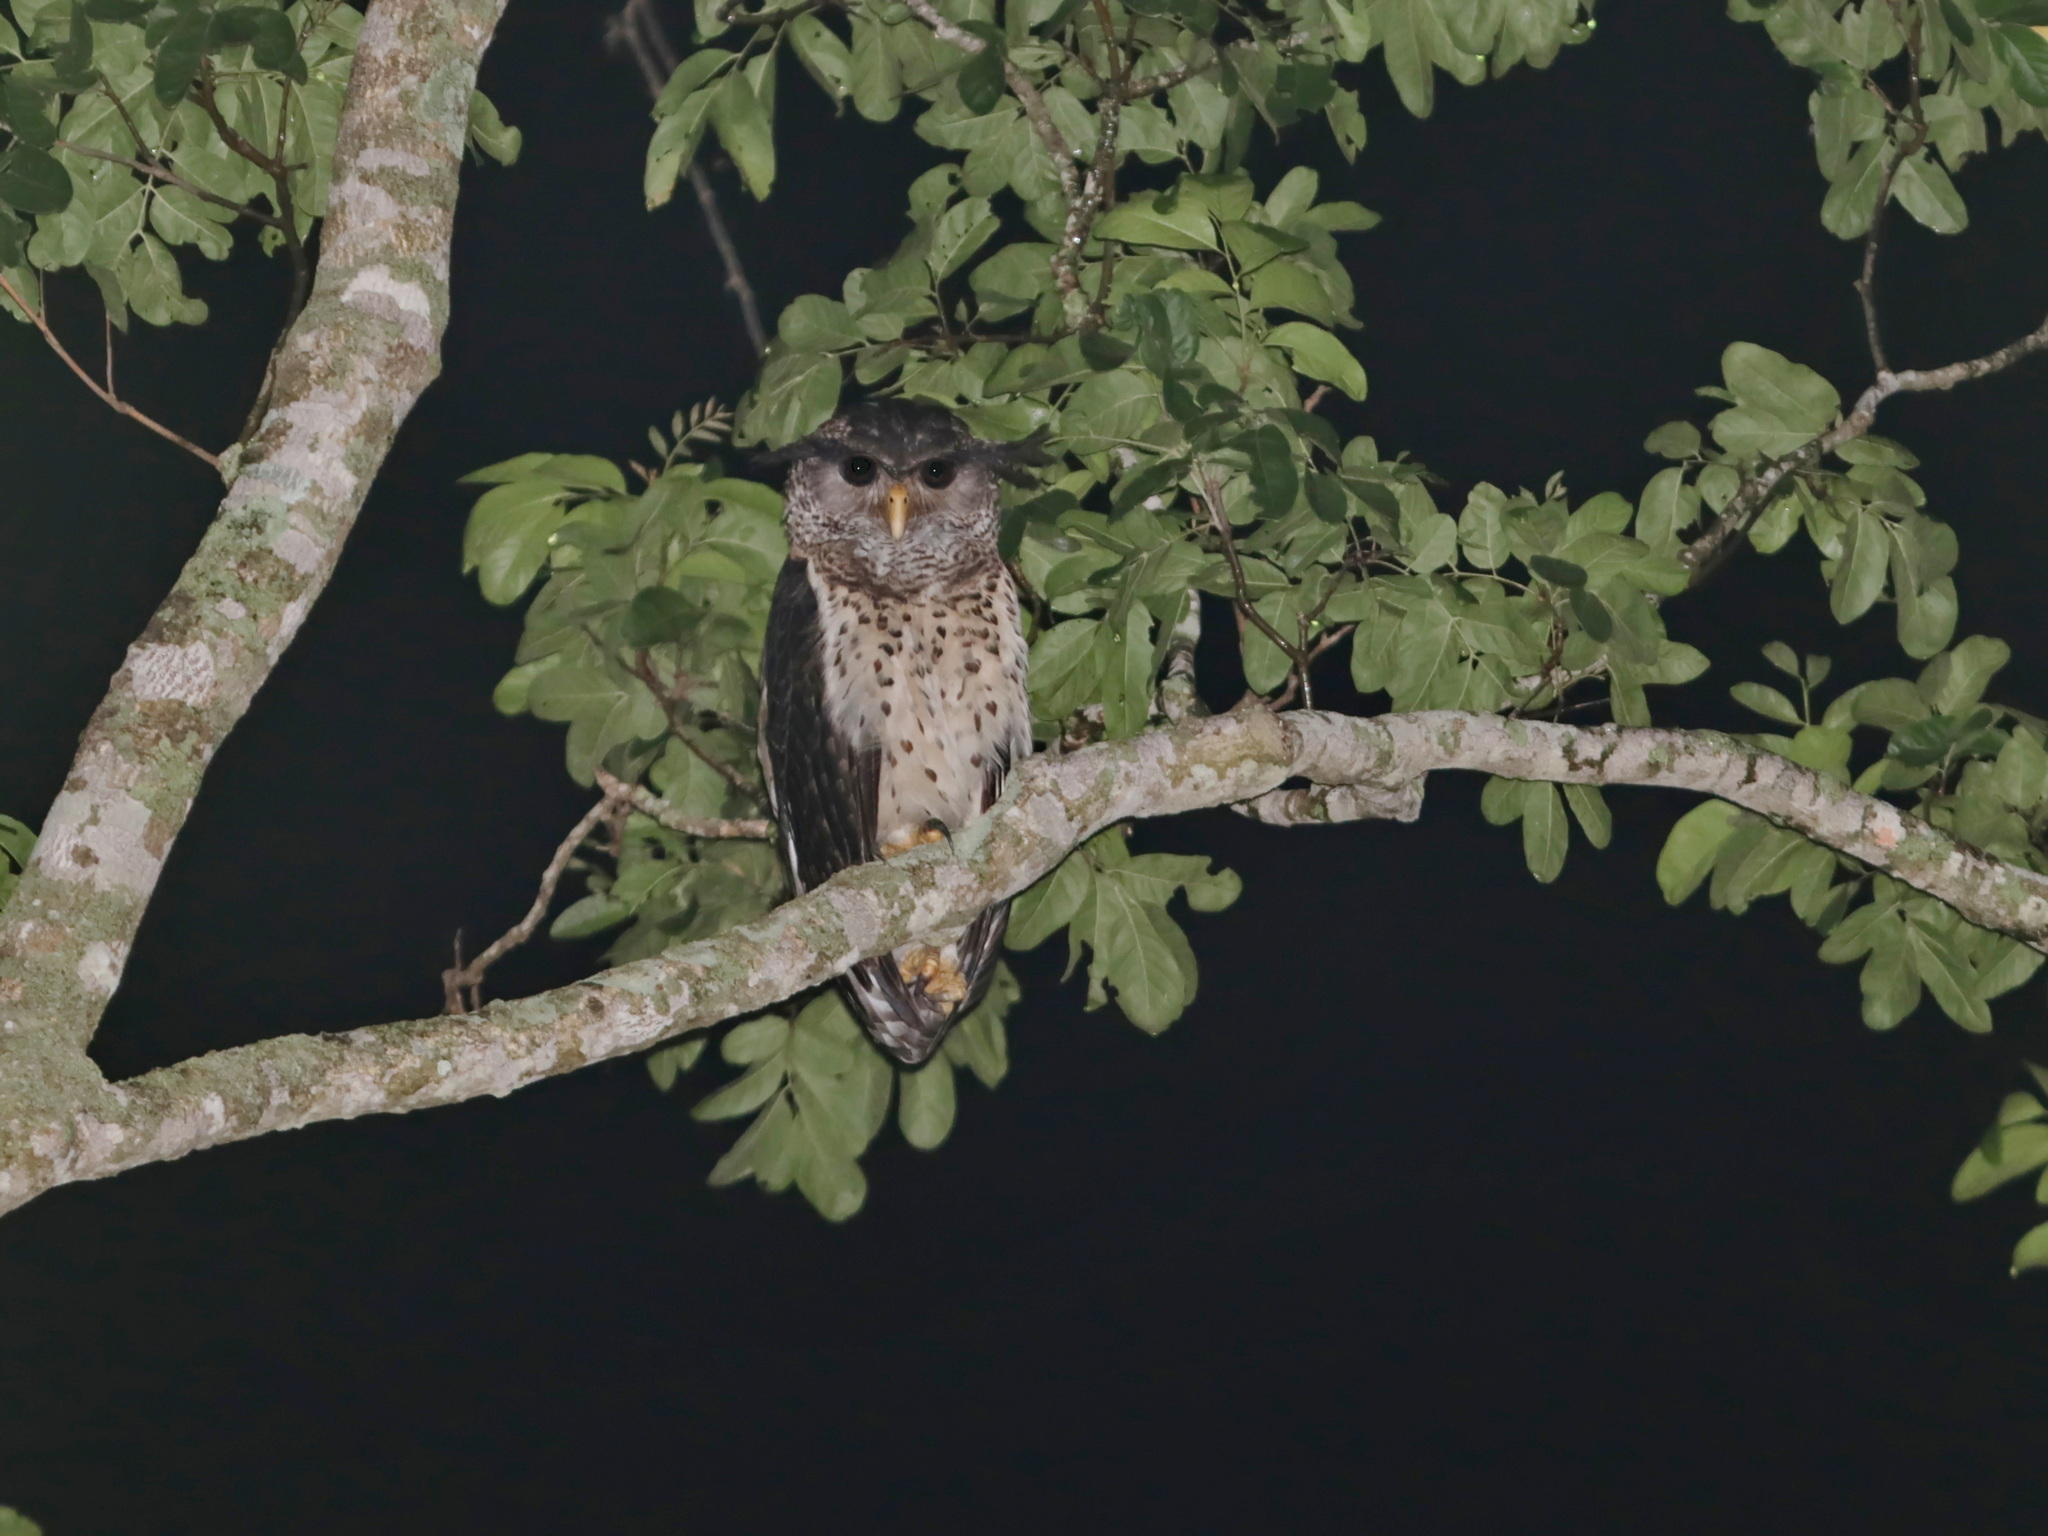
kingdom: Animalia
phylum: Chordata
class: Aves
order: Strigiformes
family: Strigidae
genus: Ketupa
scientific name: Ketupa nipalensis
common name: Spot-bellied eagle-owl
